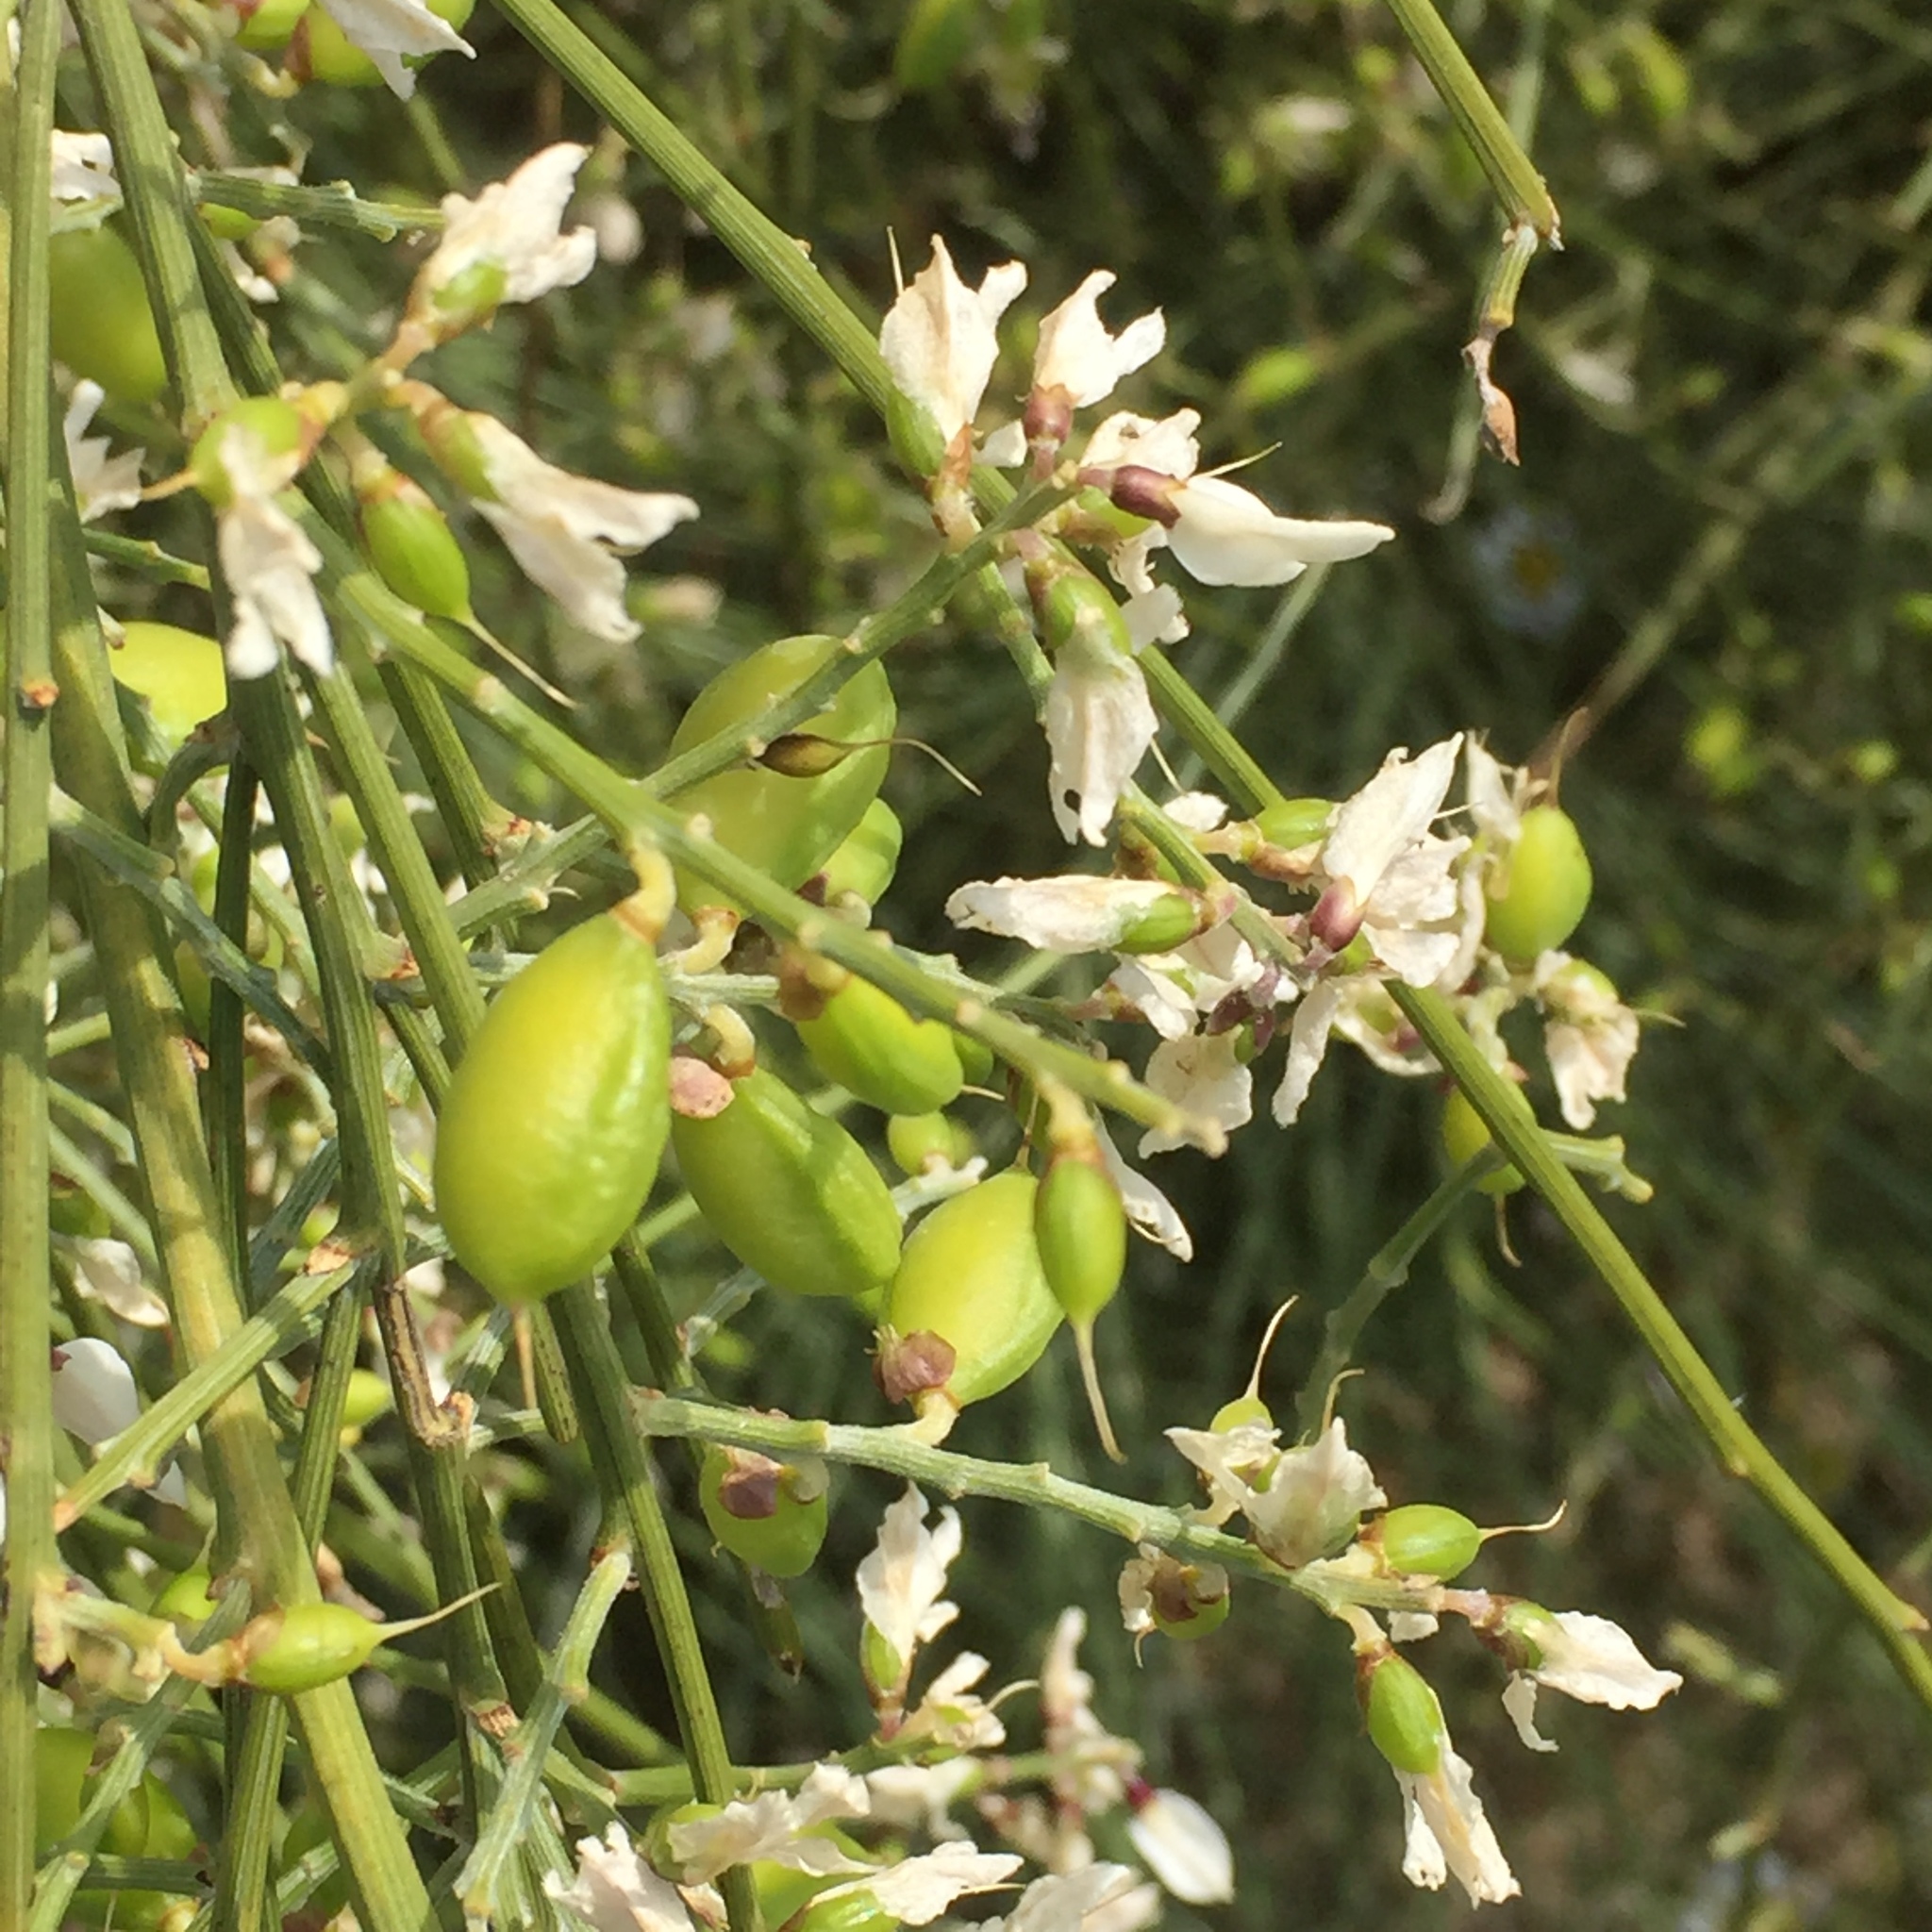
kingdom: Plantae
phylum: Tracheophyta
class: Magnoliopsida
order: Fabales
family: Fabaceae
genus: Retama
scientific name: Retama monosperma
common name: Bridal broom
